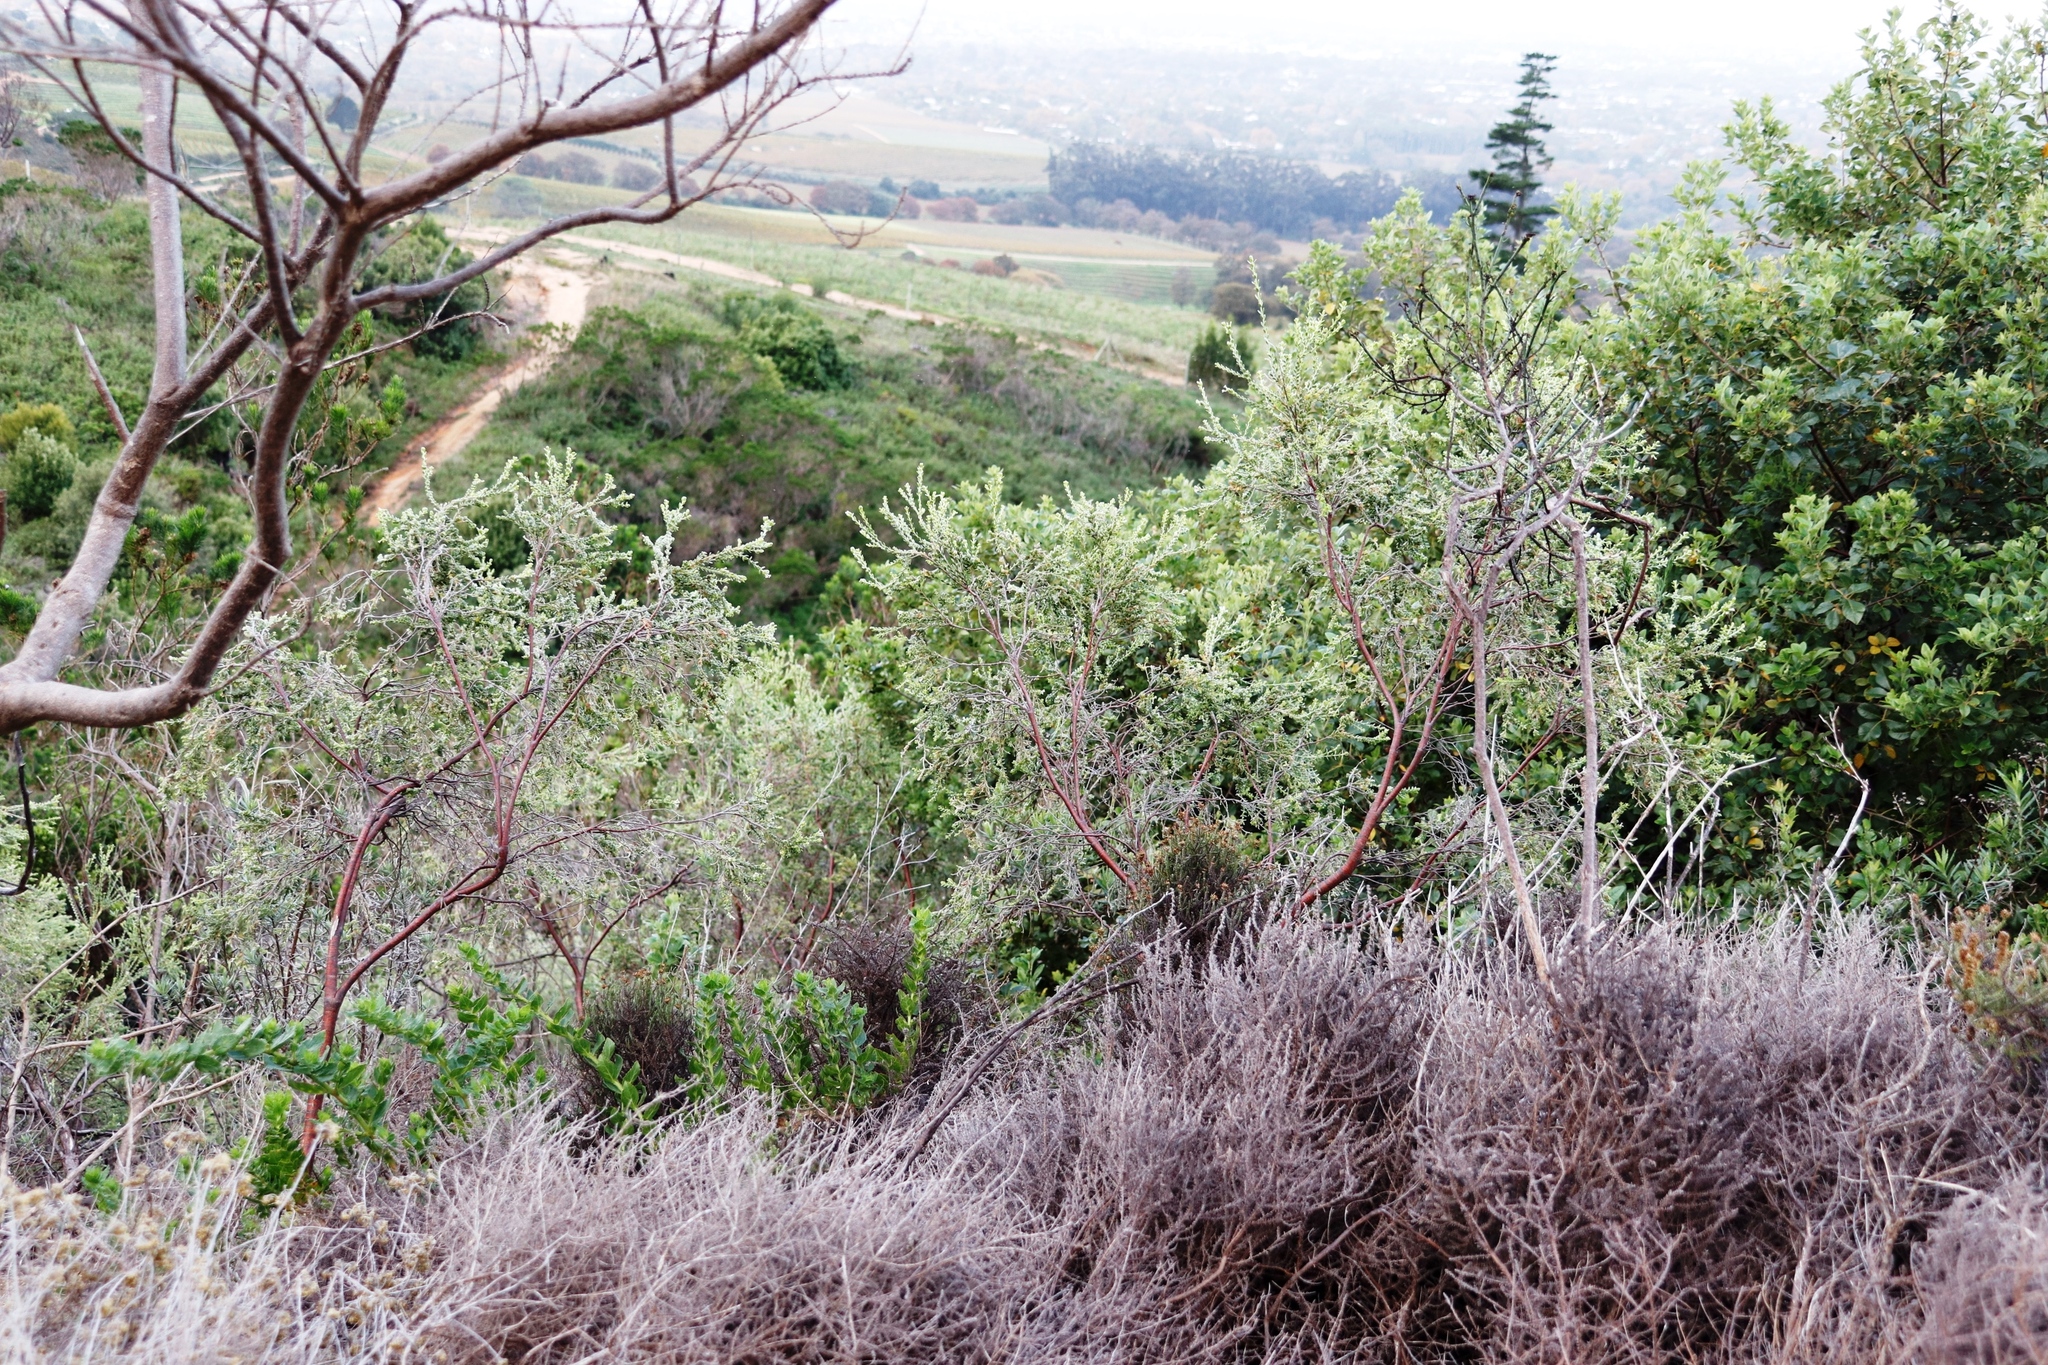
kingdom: Plantae
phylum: Tracheophyta
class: Magnoliopsida
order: Malvales
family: Thymelaeaceae
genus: Gnidia
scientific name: Gnidia sericea
